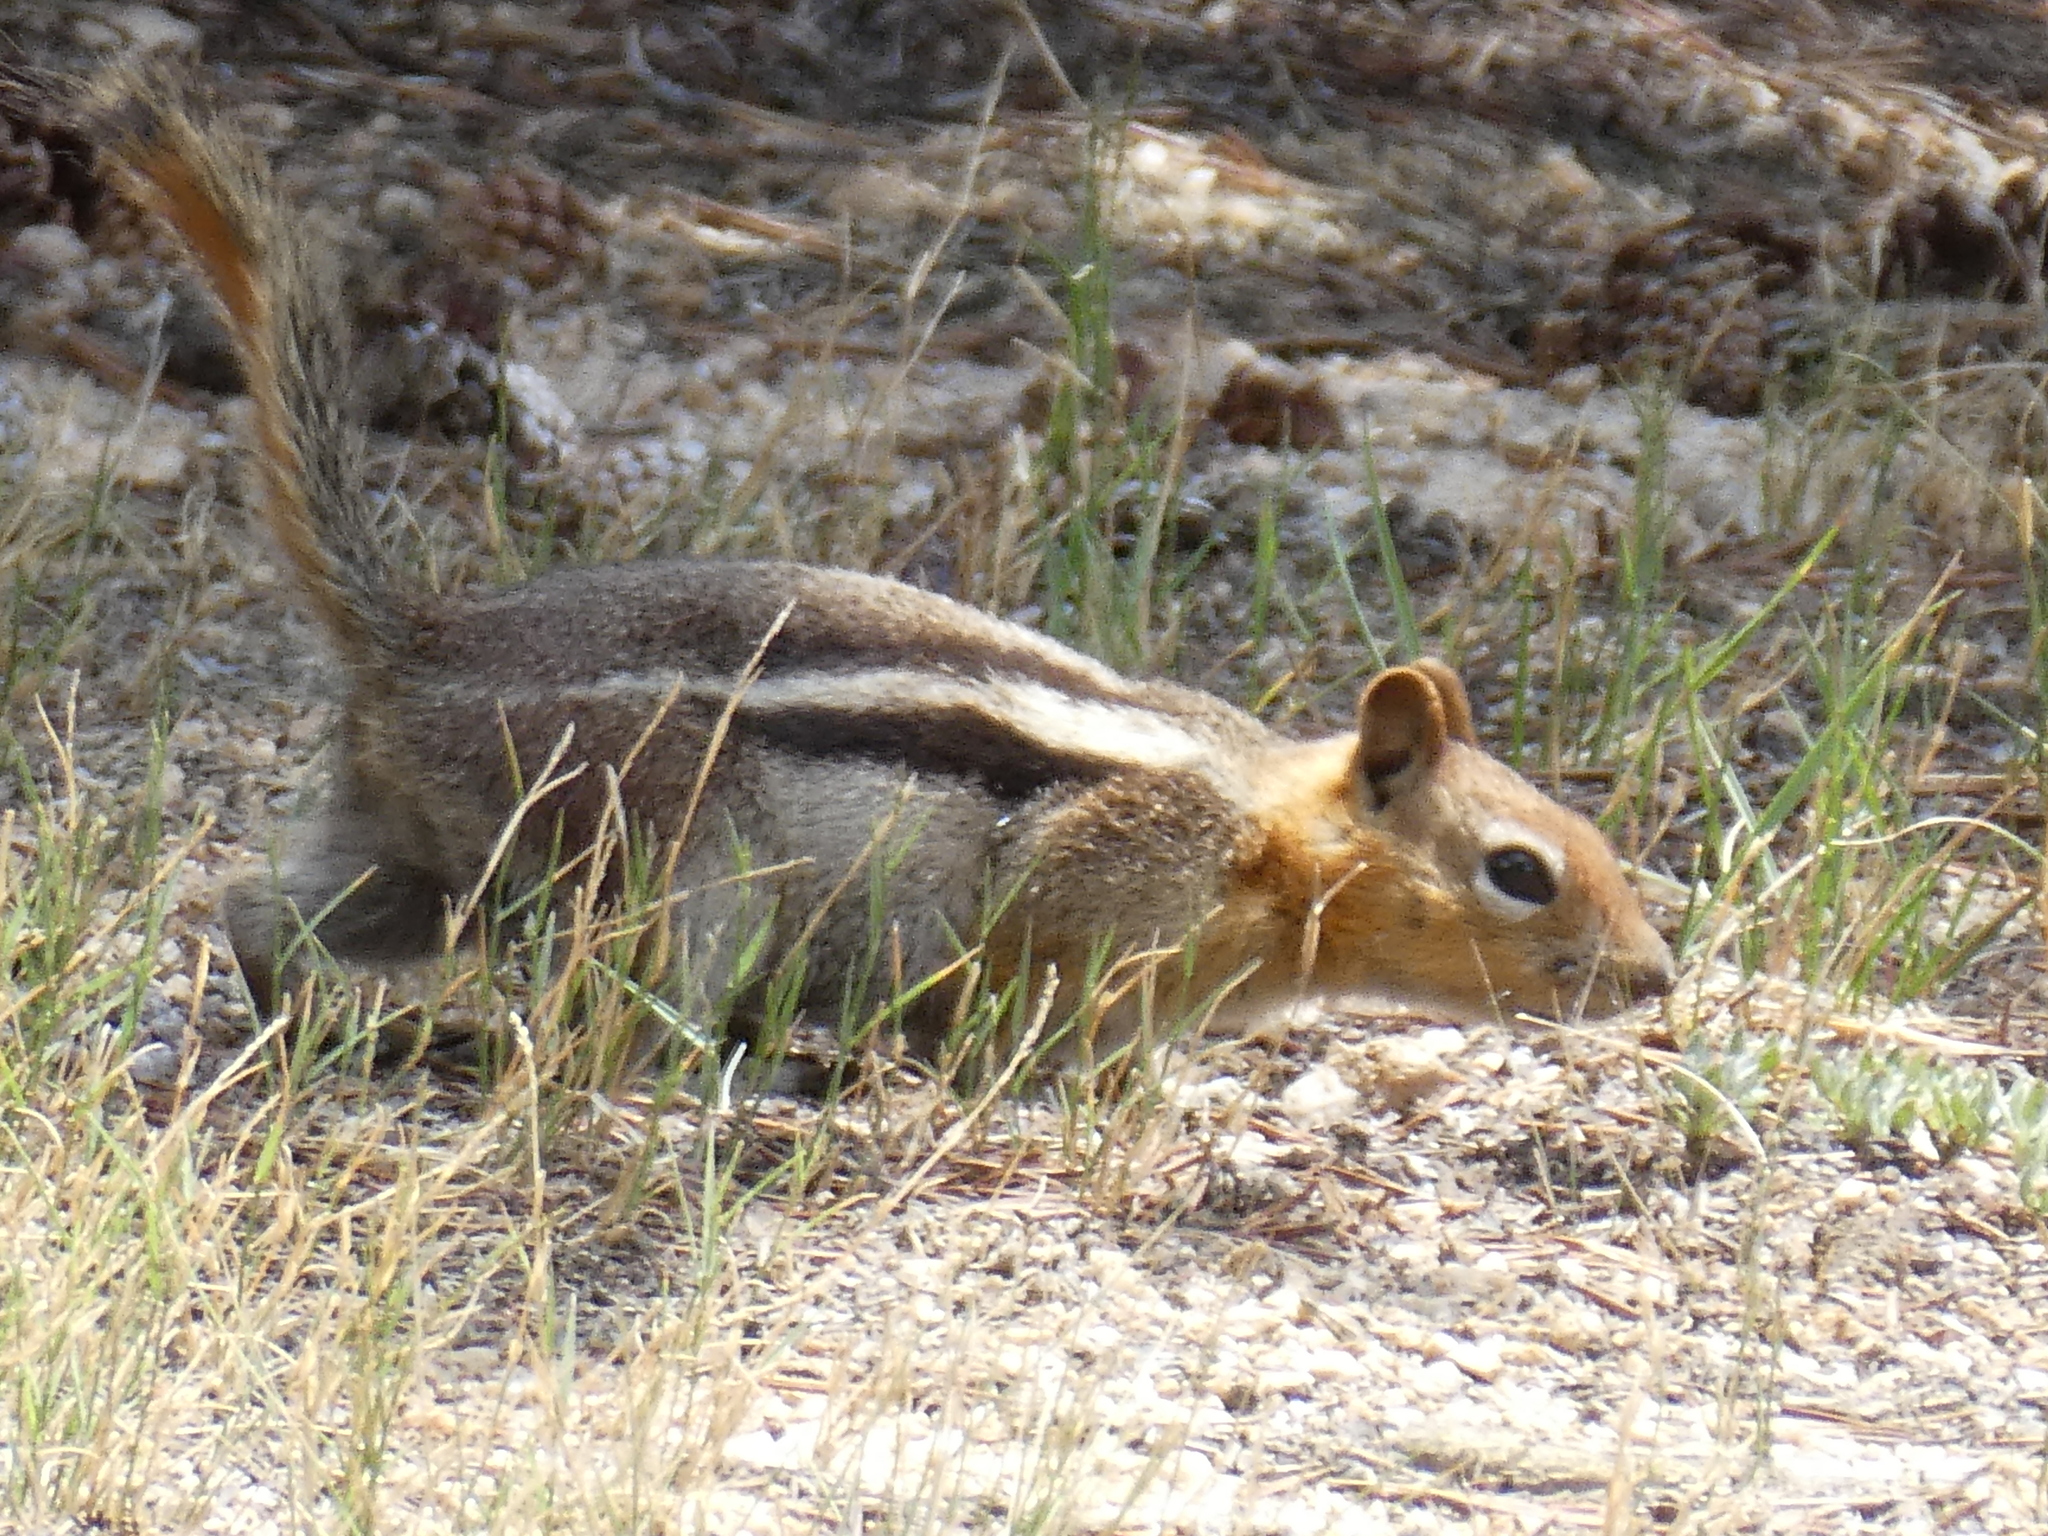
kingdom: Animalia
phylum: Chordata
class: Mammalia
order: Rodentia
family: Sciuridae
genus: Callospermophilus
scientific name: Callospermophilus lateralis
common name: Golden-mantled ground squirrel
